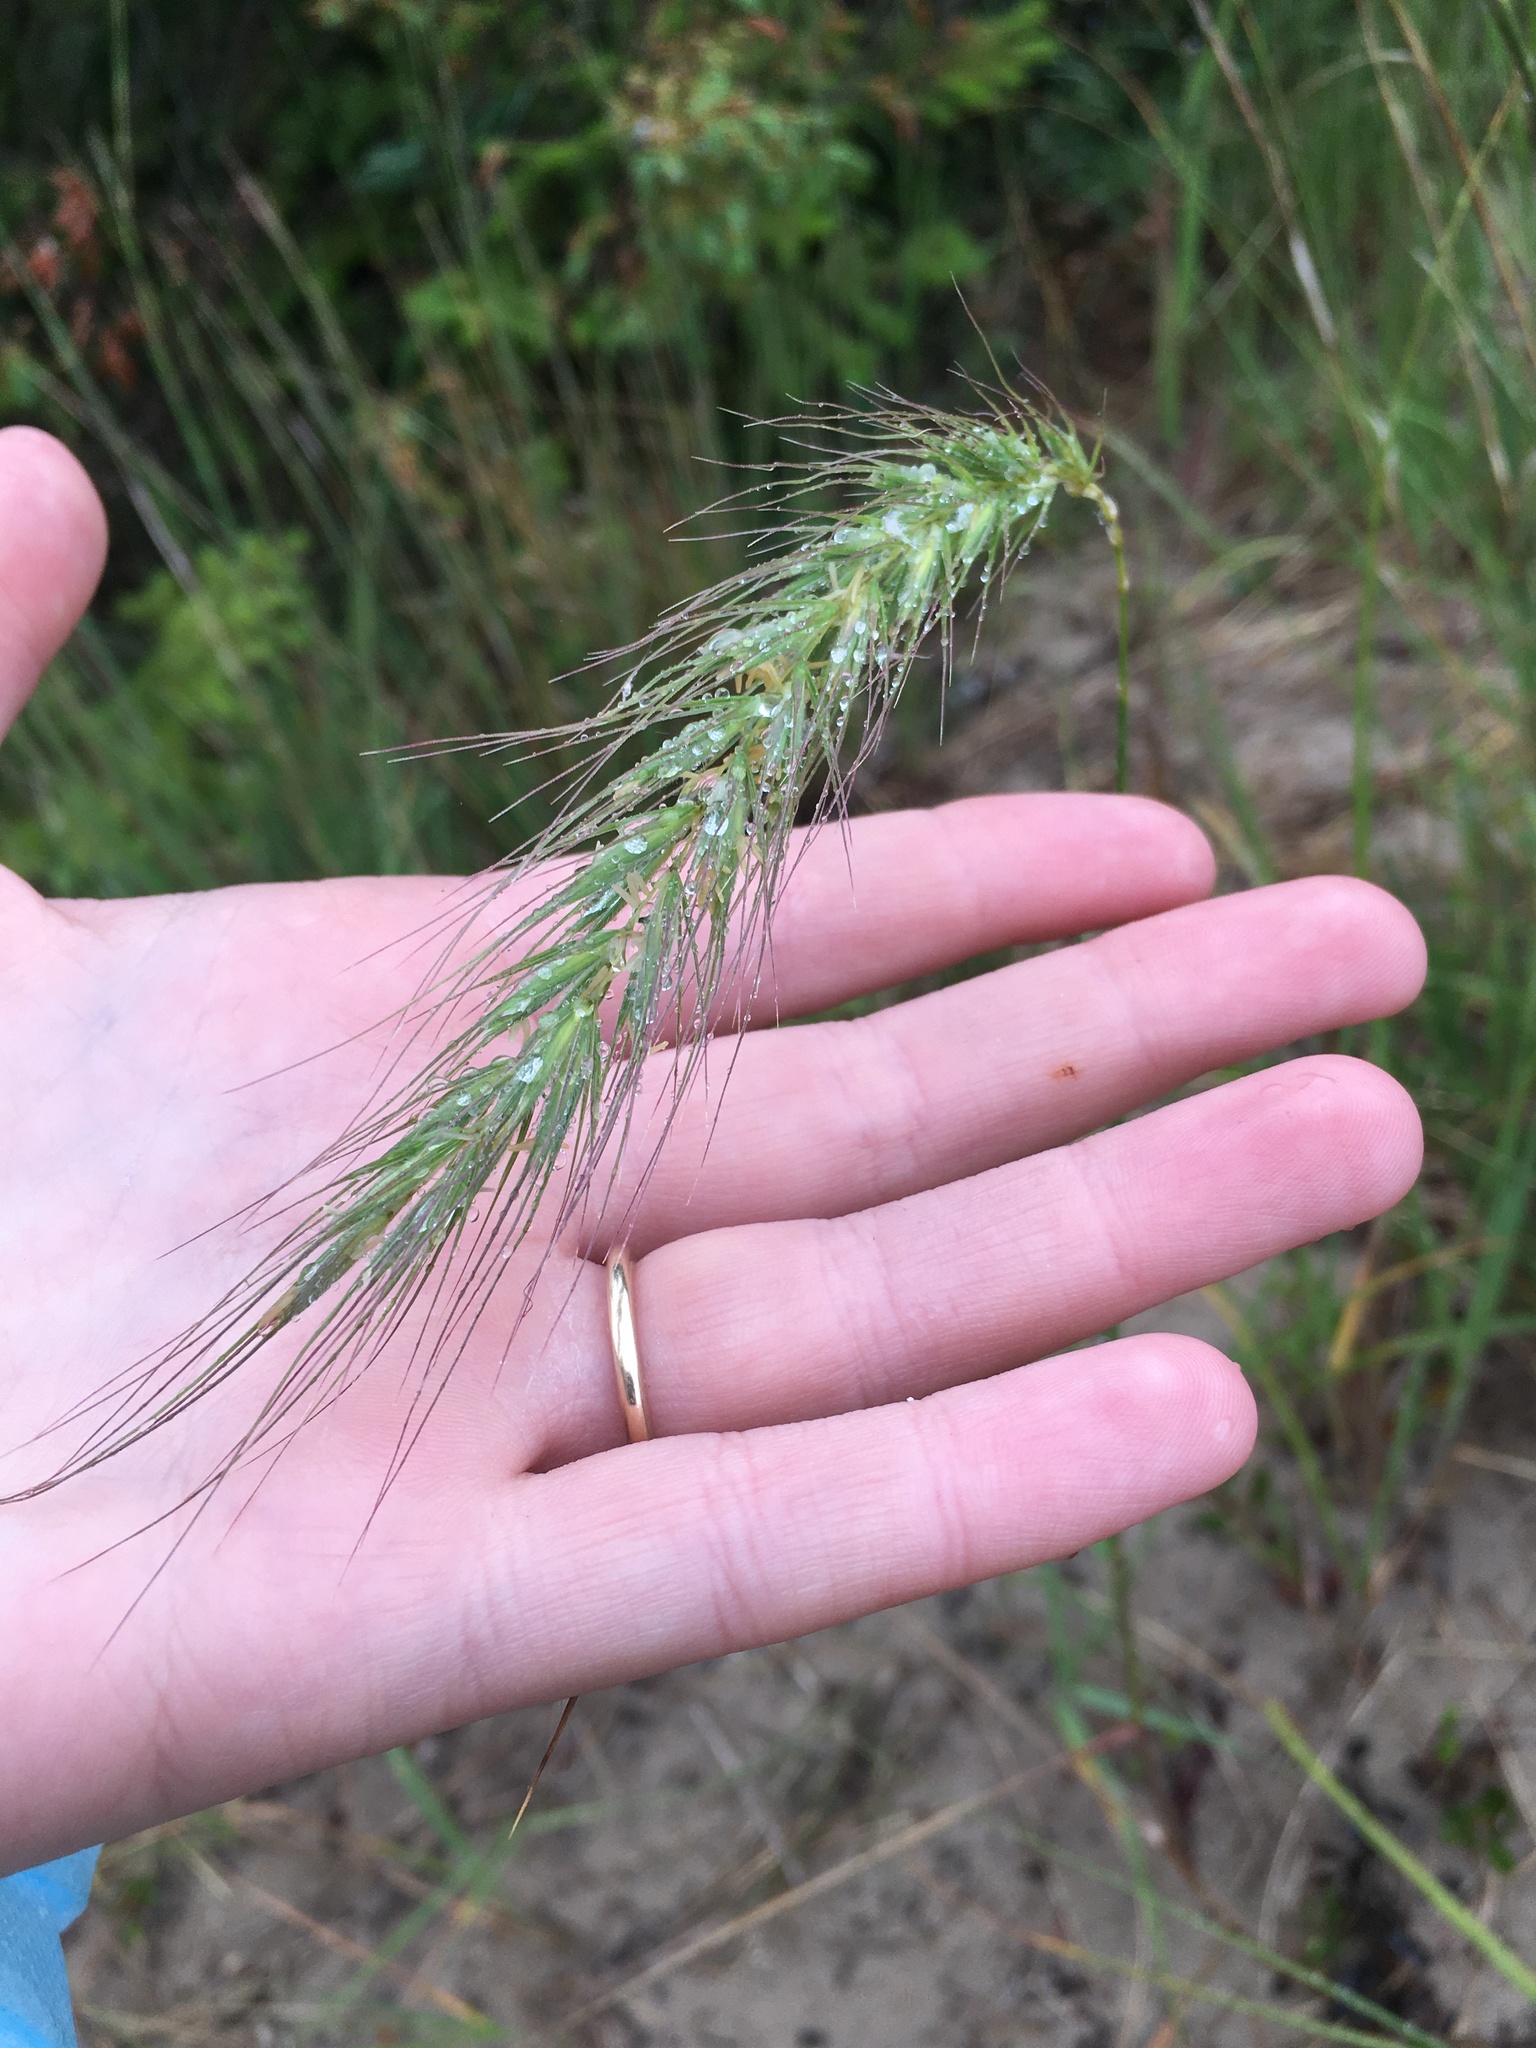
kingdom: Plantae
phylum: Tracheophyta
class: Liliopsida
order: Poales
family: Poaceae
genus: Elymus
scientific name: Elymus canadensis
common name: Canada wild rye
